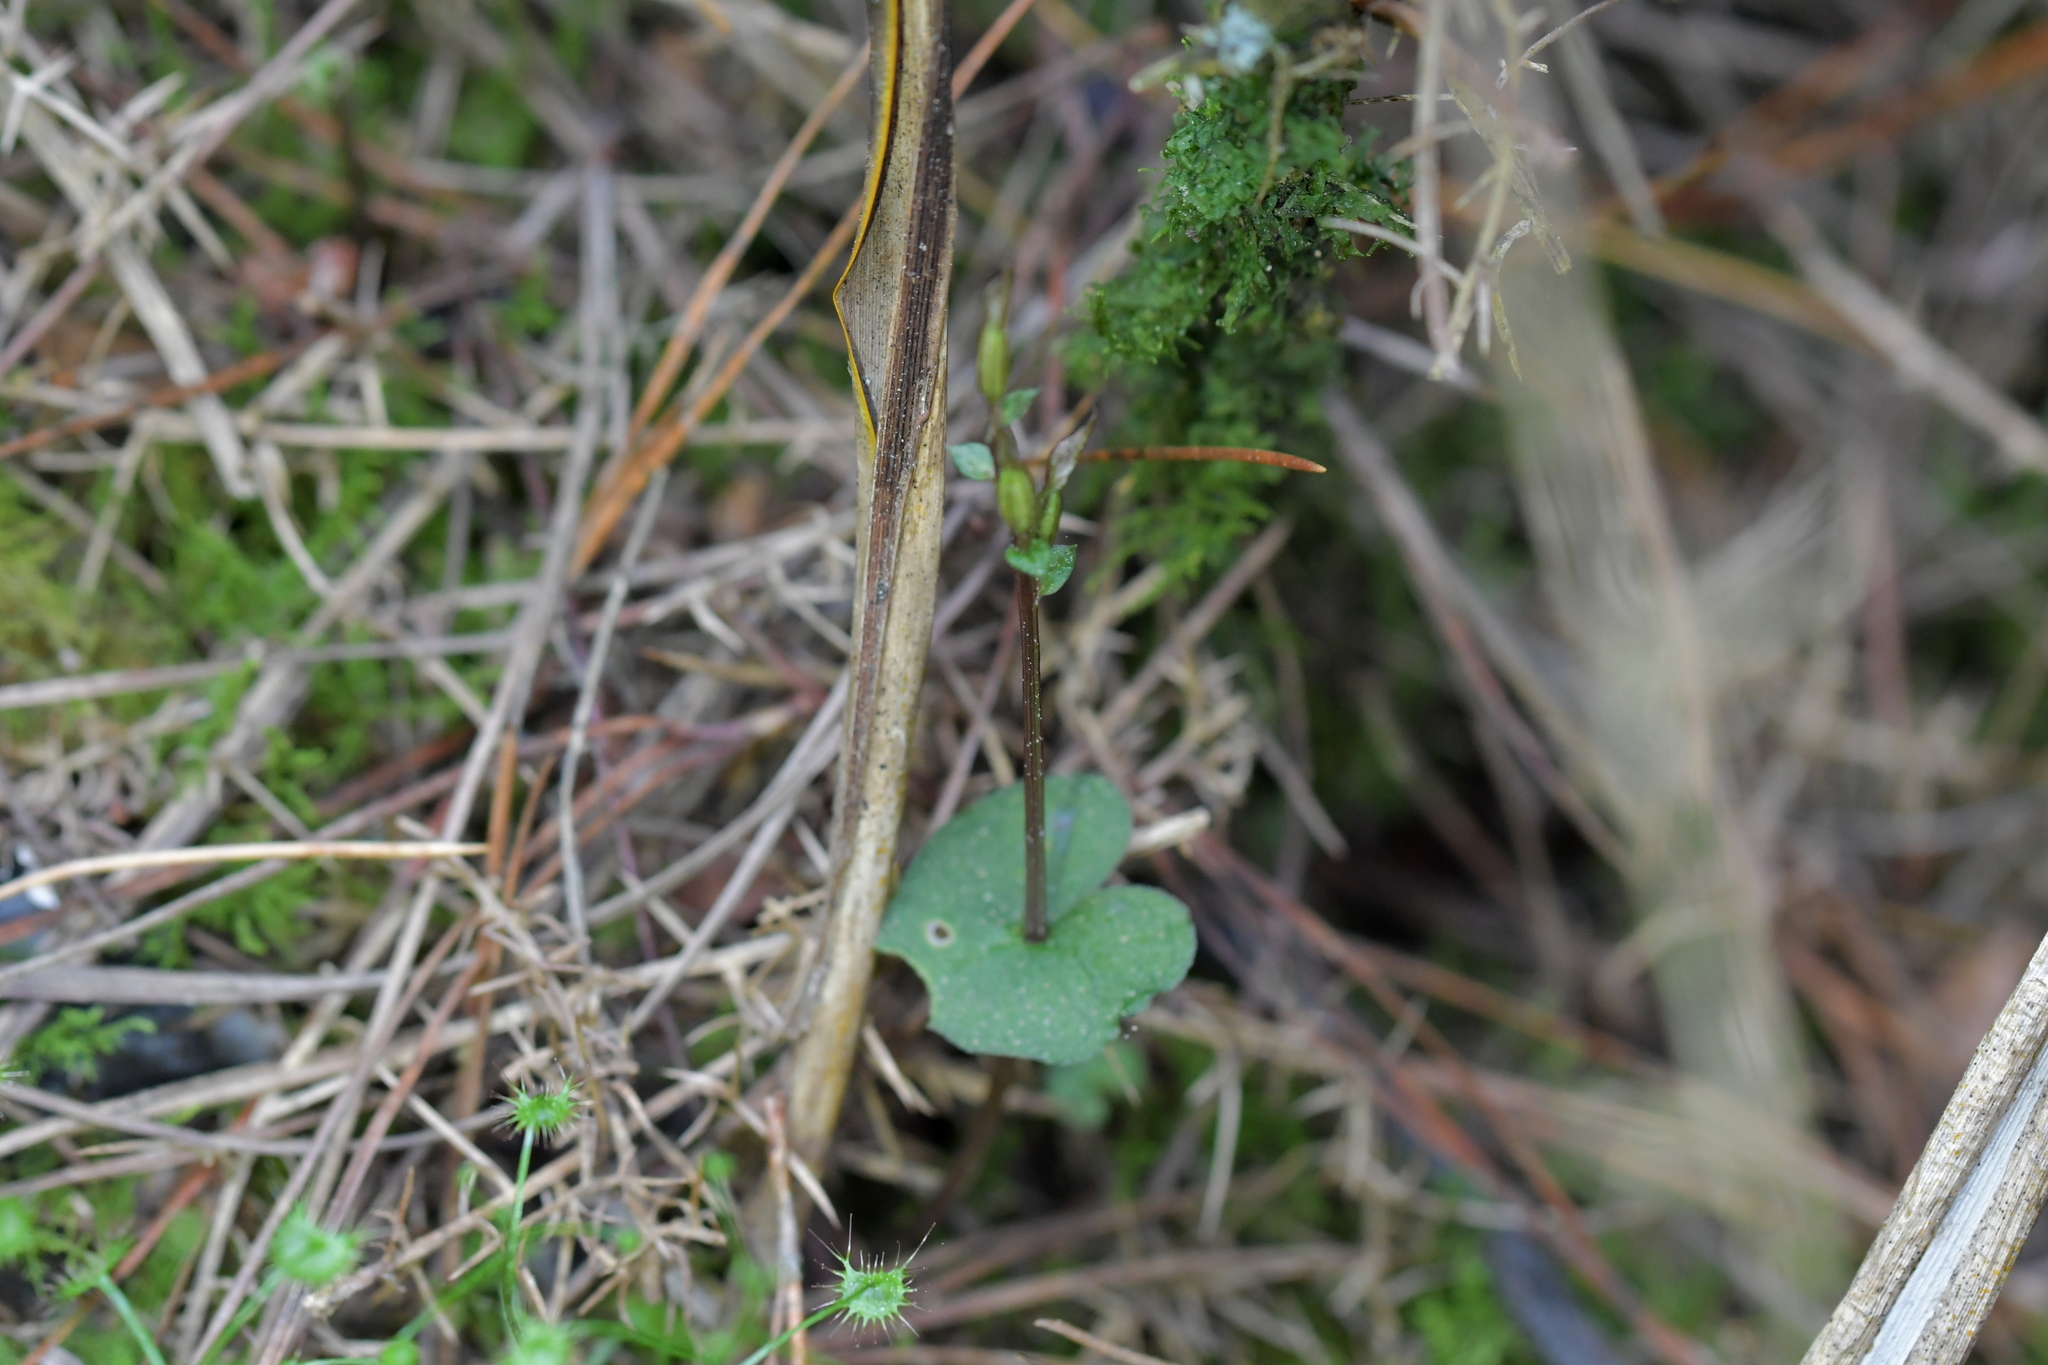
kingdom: Plantae
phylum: Tracheophyta
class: Liliopsida
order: Asparagales
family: Orchidaceae
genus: Acianthus
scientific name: Acianthus sinclairii
